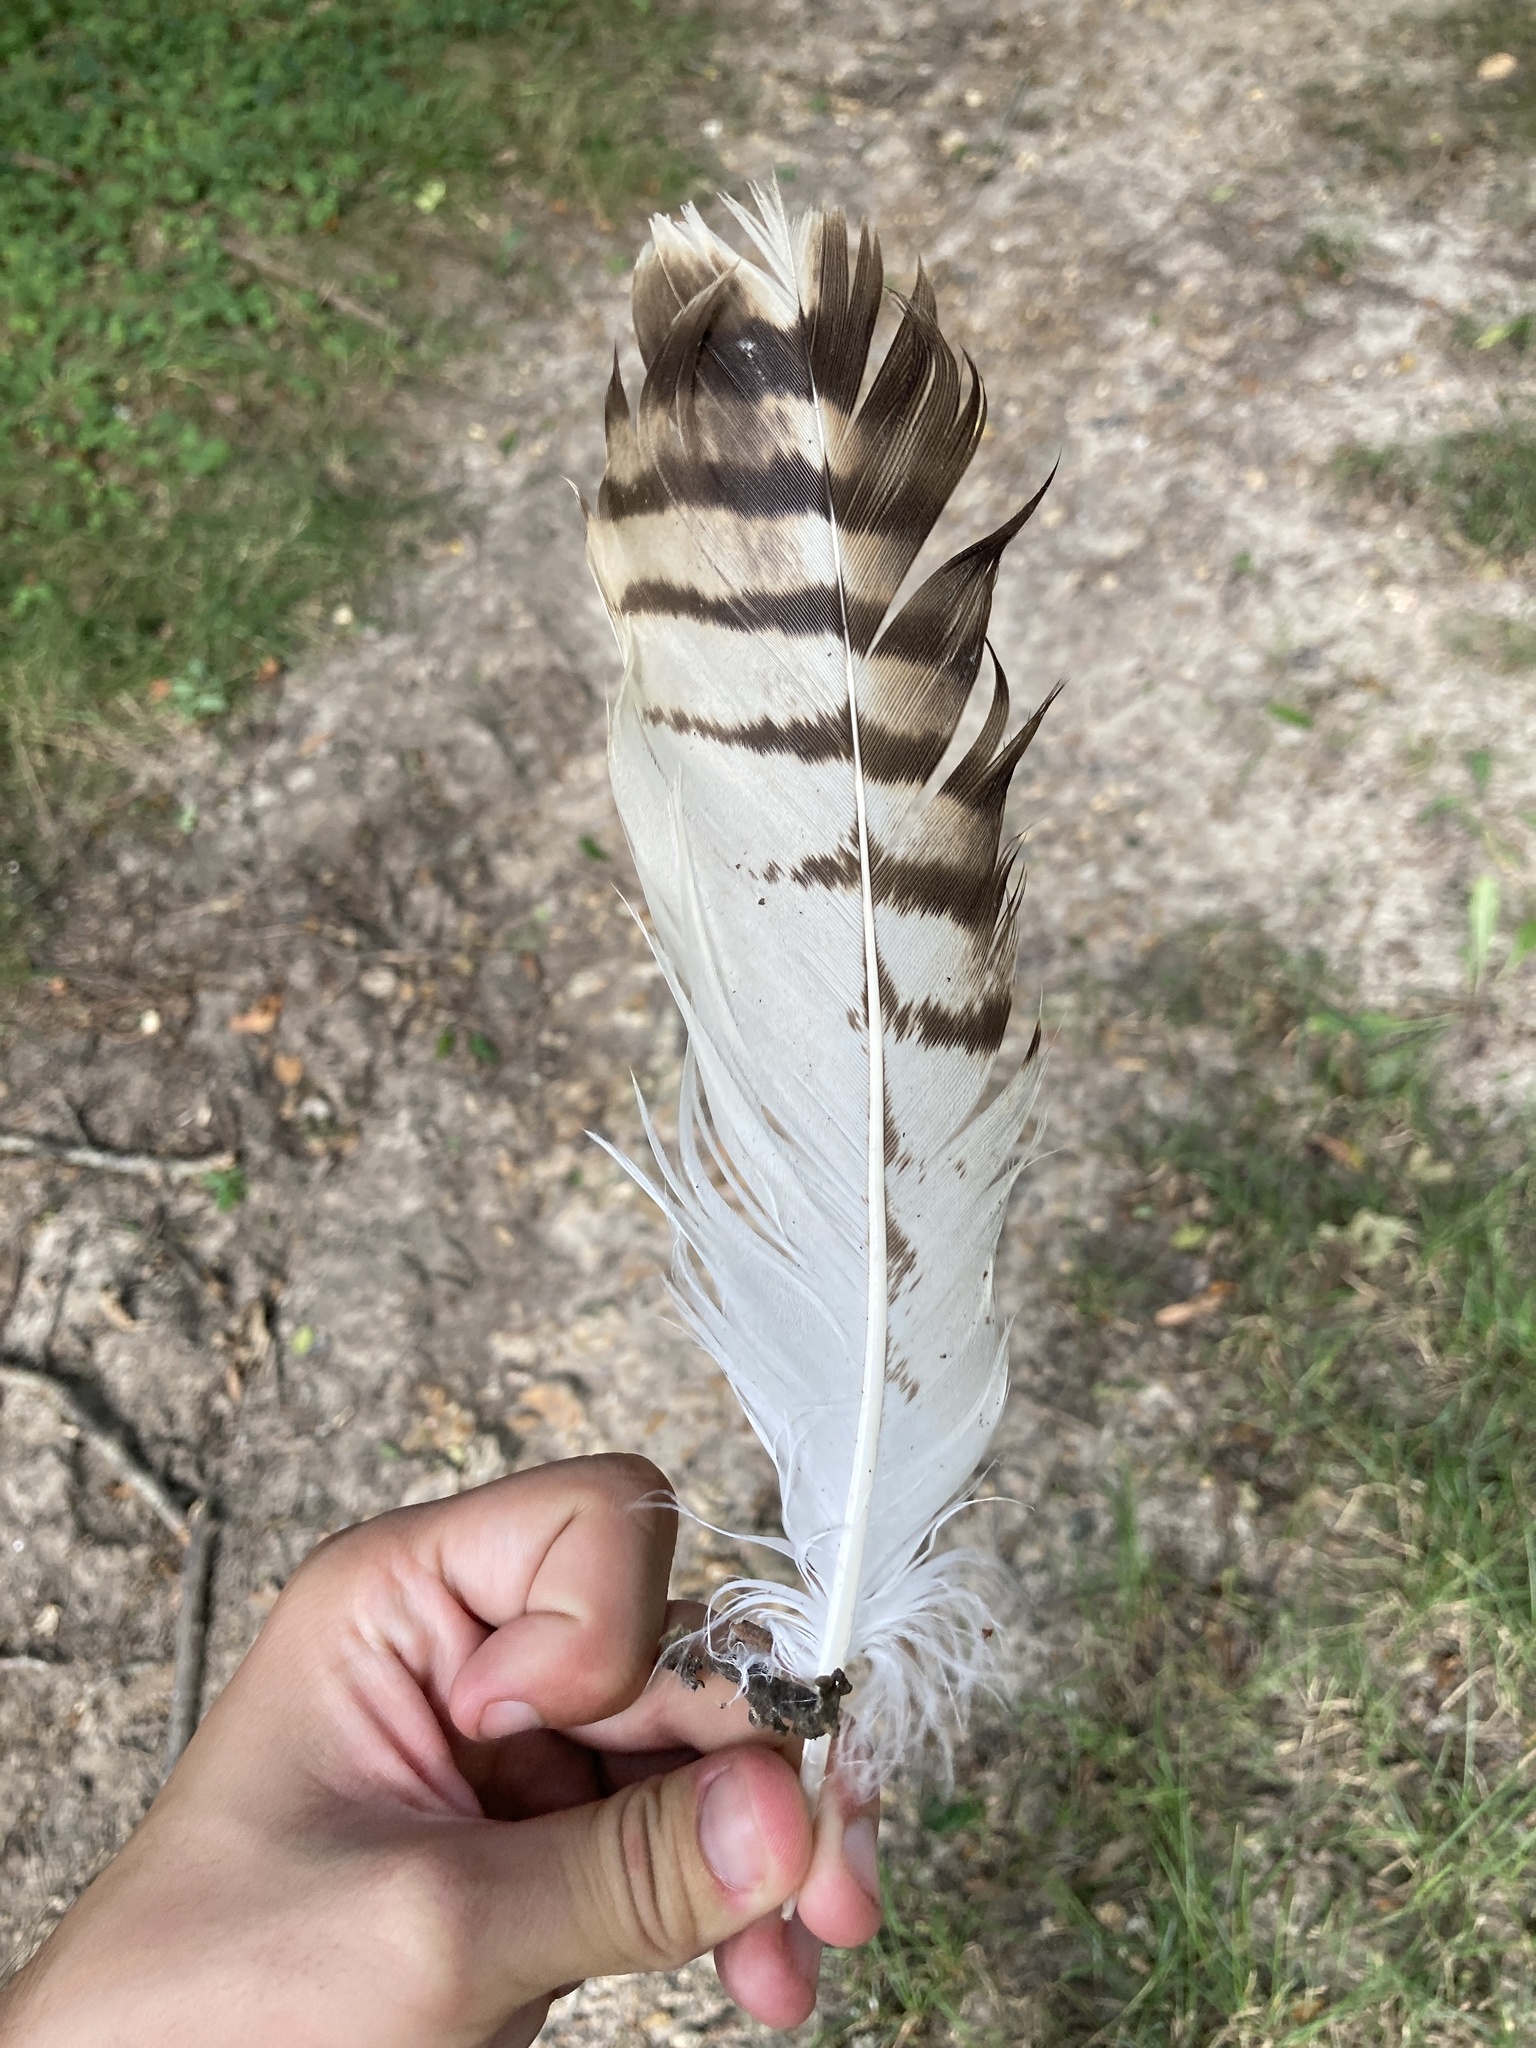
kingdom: Animalia
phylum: Chordata
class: Aves
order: Accipitriformes
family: Accipitridae
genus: Buteo
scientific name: Buteo buteo
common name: Common buzzard
